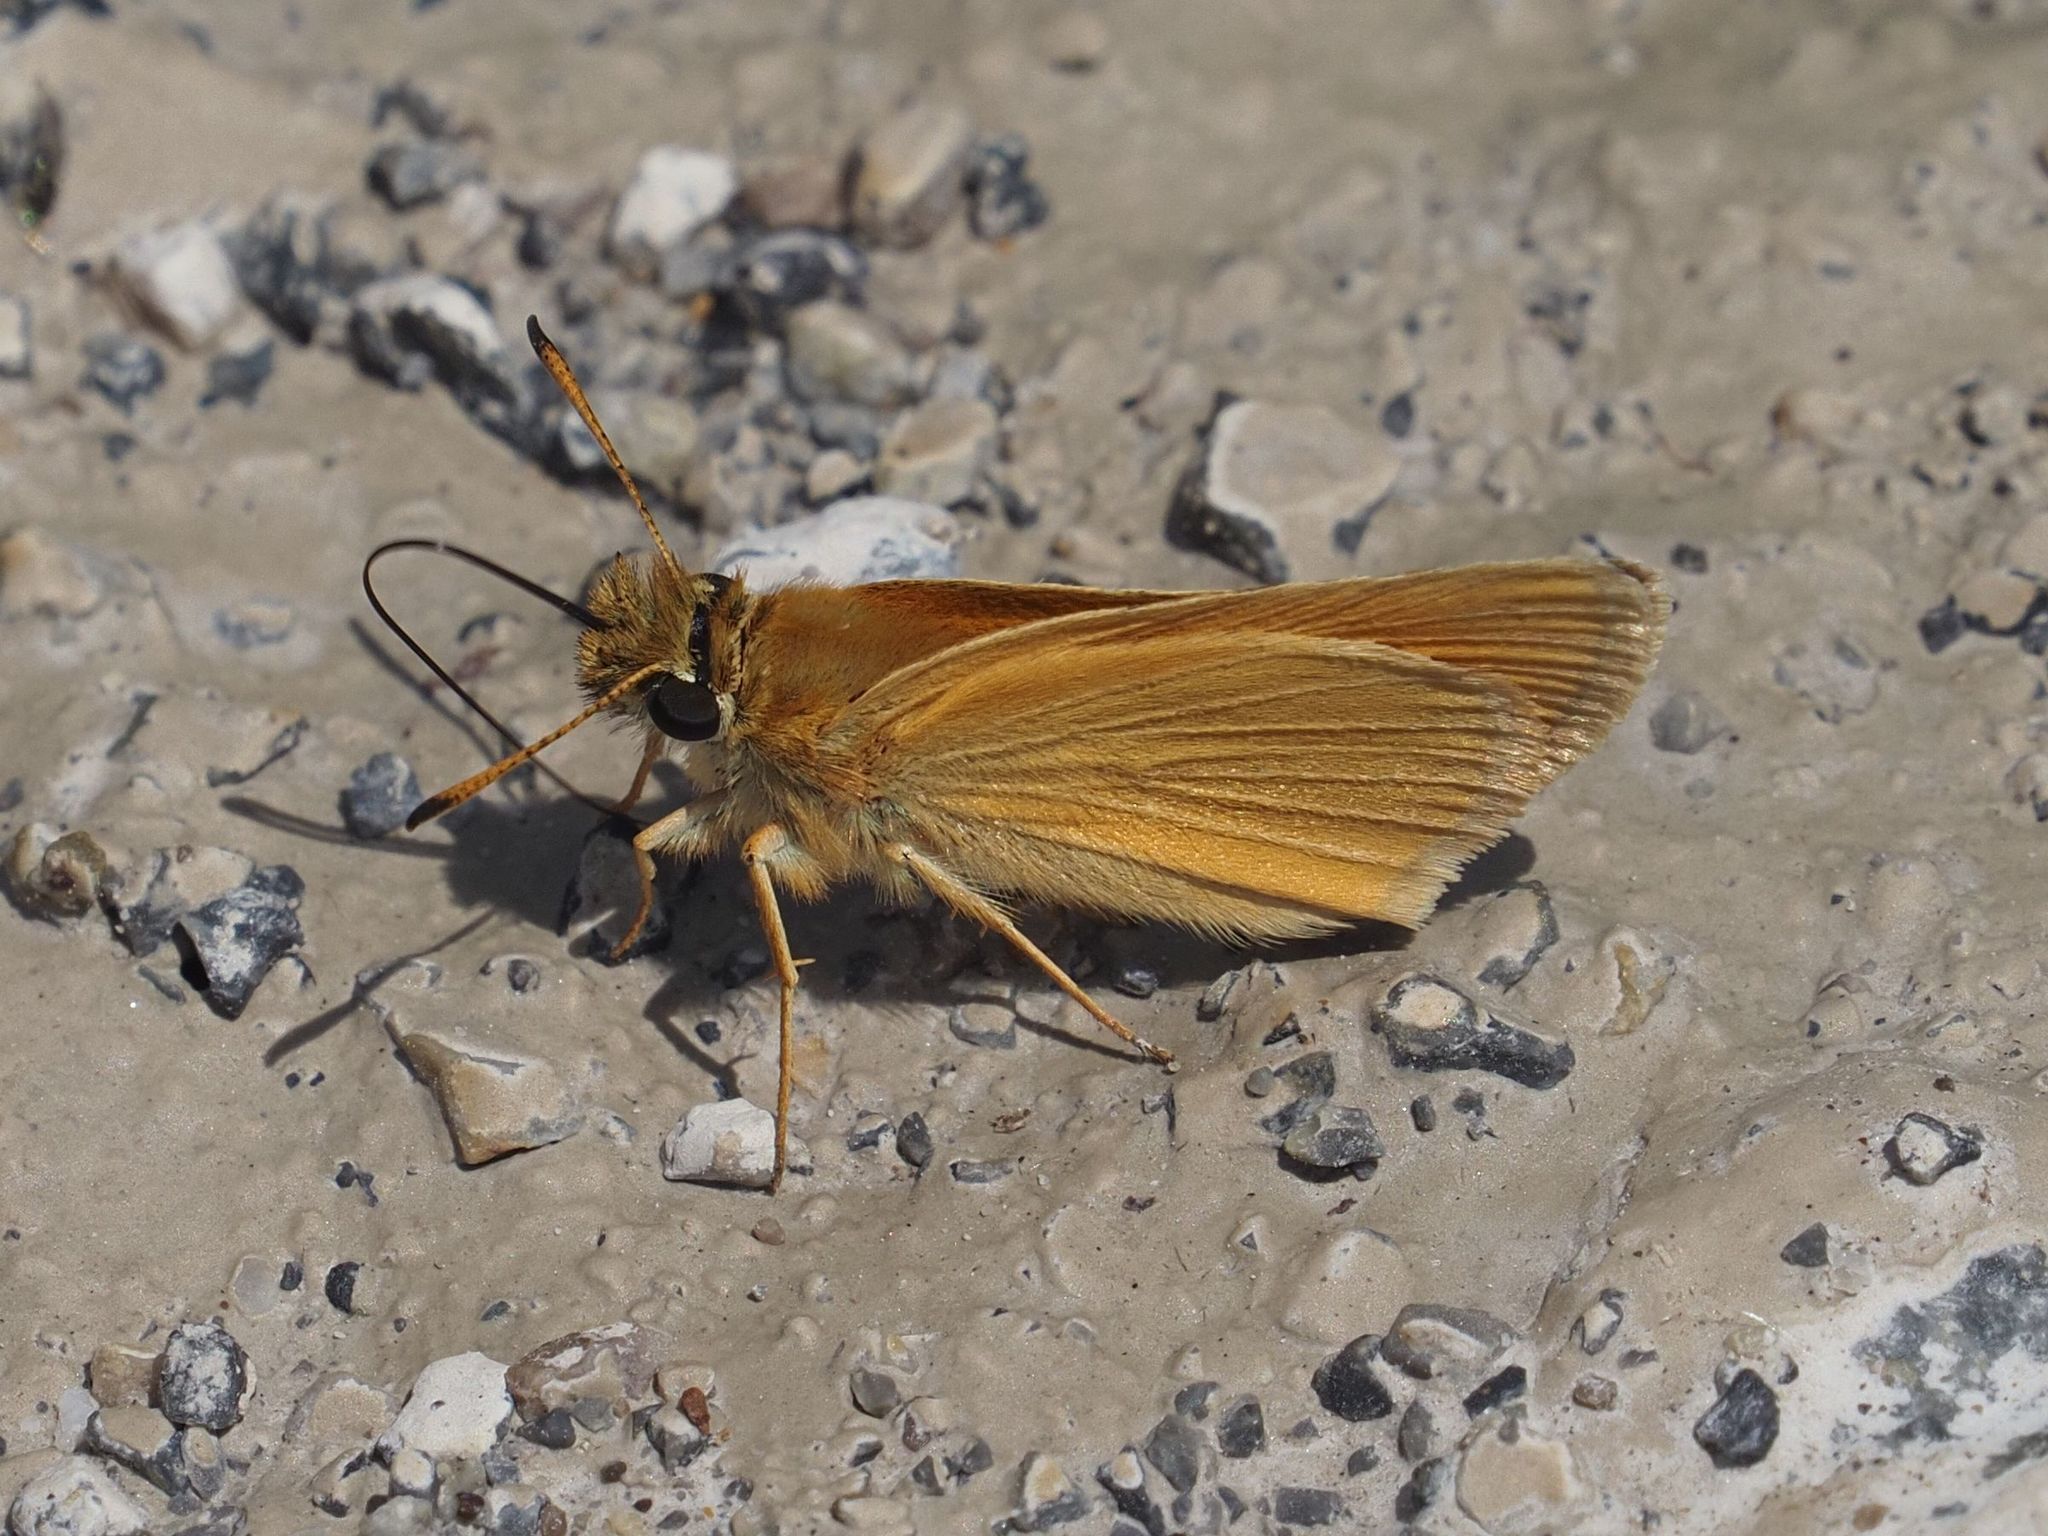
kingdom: Animalia
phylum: Arthropoda
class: Insecta
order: Lepidoptera
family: Hesperiidae
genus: Thymelicus
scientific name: Thymelicus lineola
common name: Essex skipper
